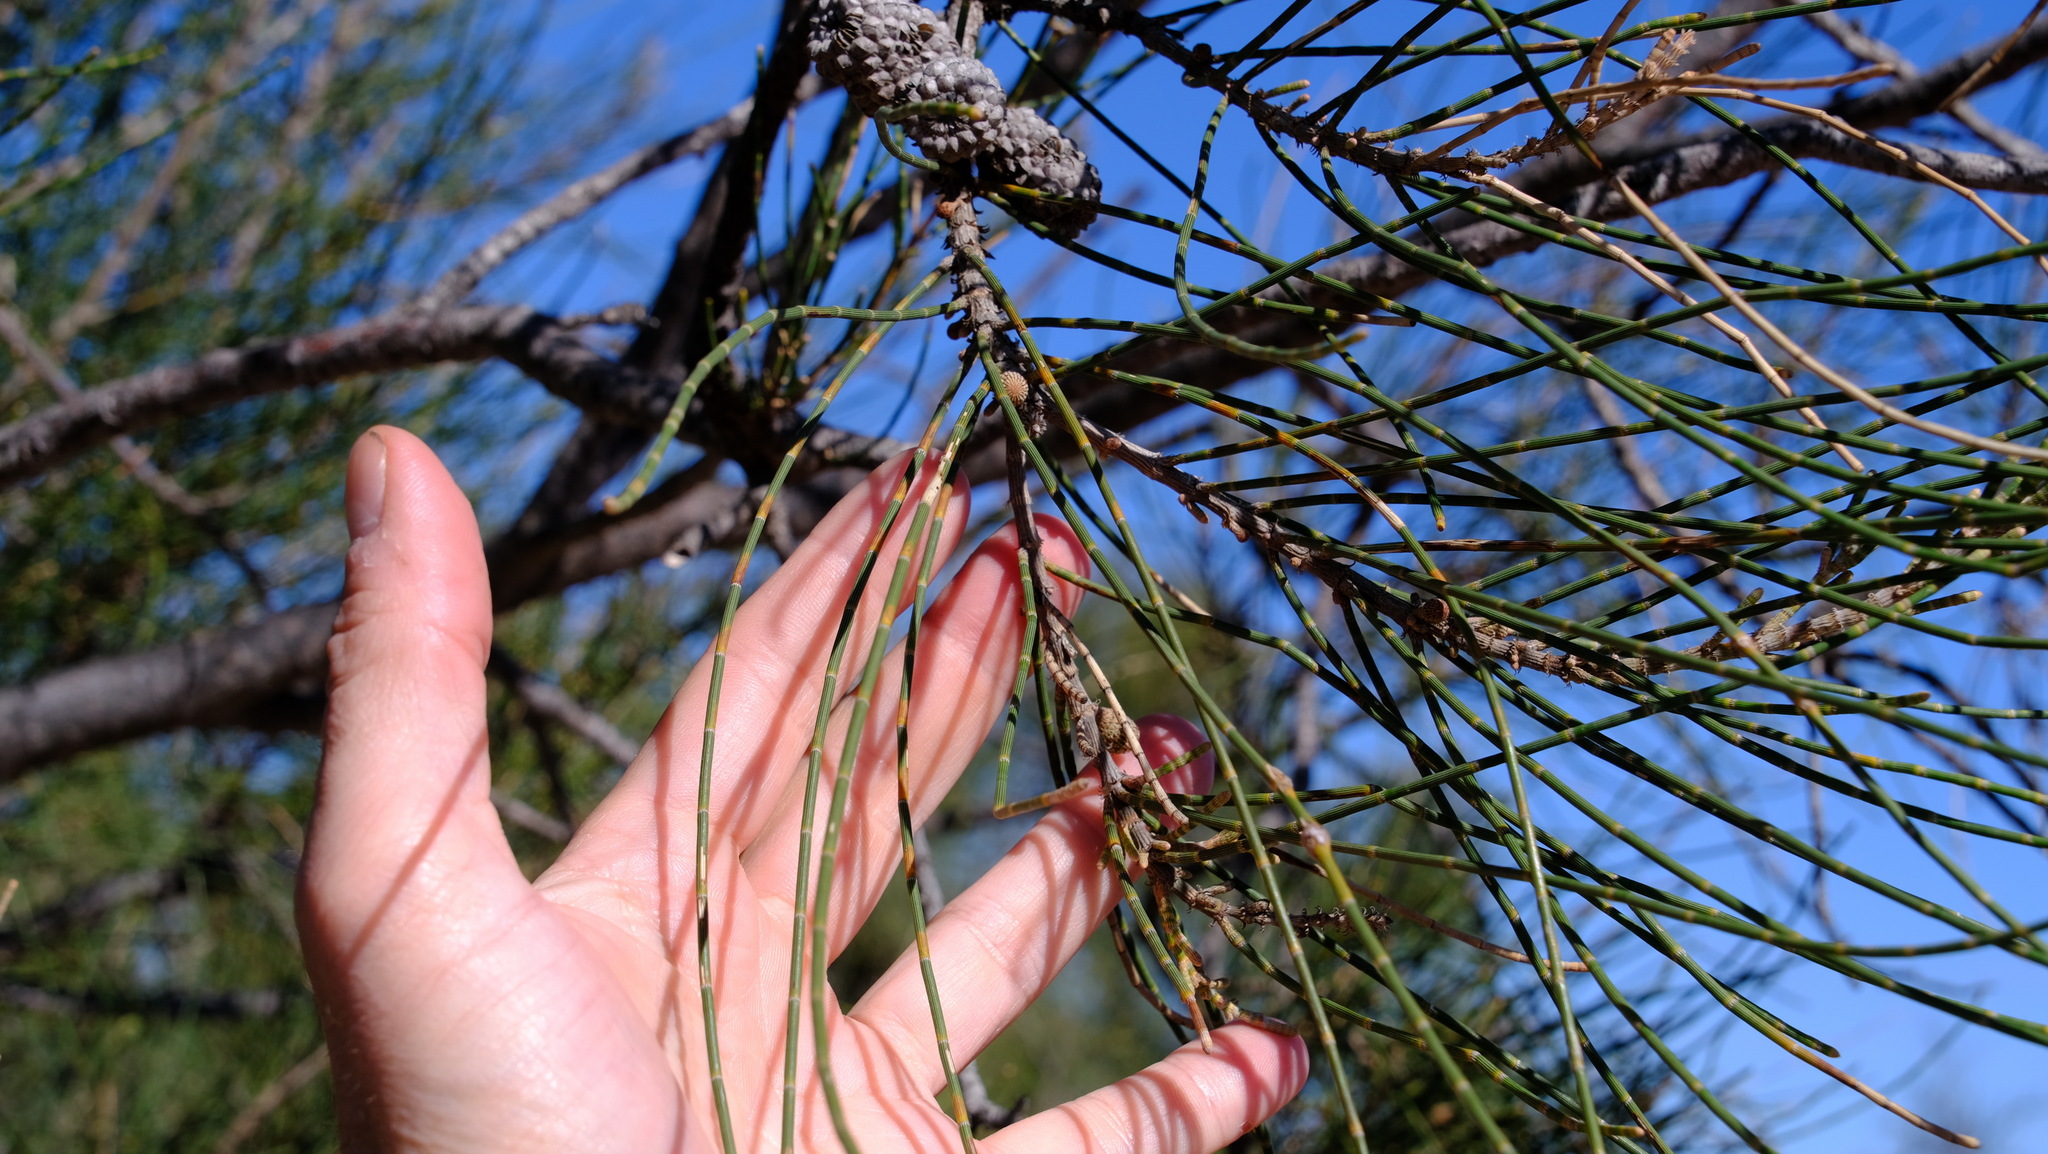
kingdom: Plantae
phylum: Tracheophyta
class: Magnoliopsida
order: Fagales
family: Casuarinaceae
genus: Casuarina
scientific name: Casuarina obesa
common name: Swamp she-oak
